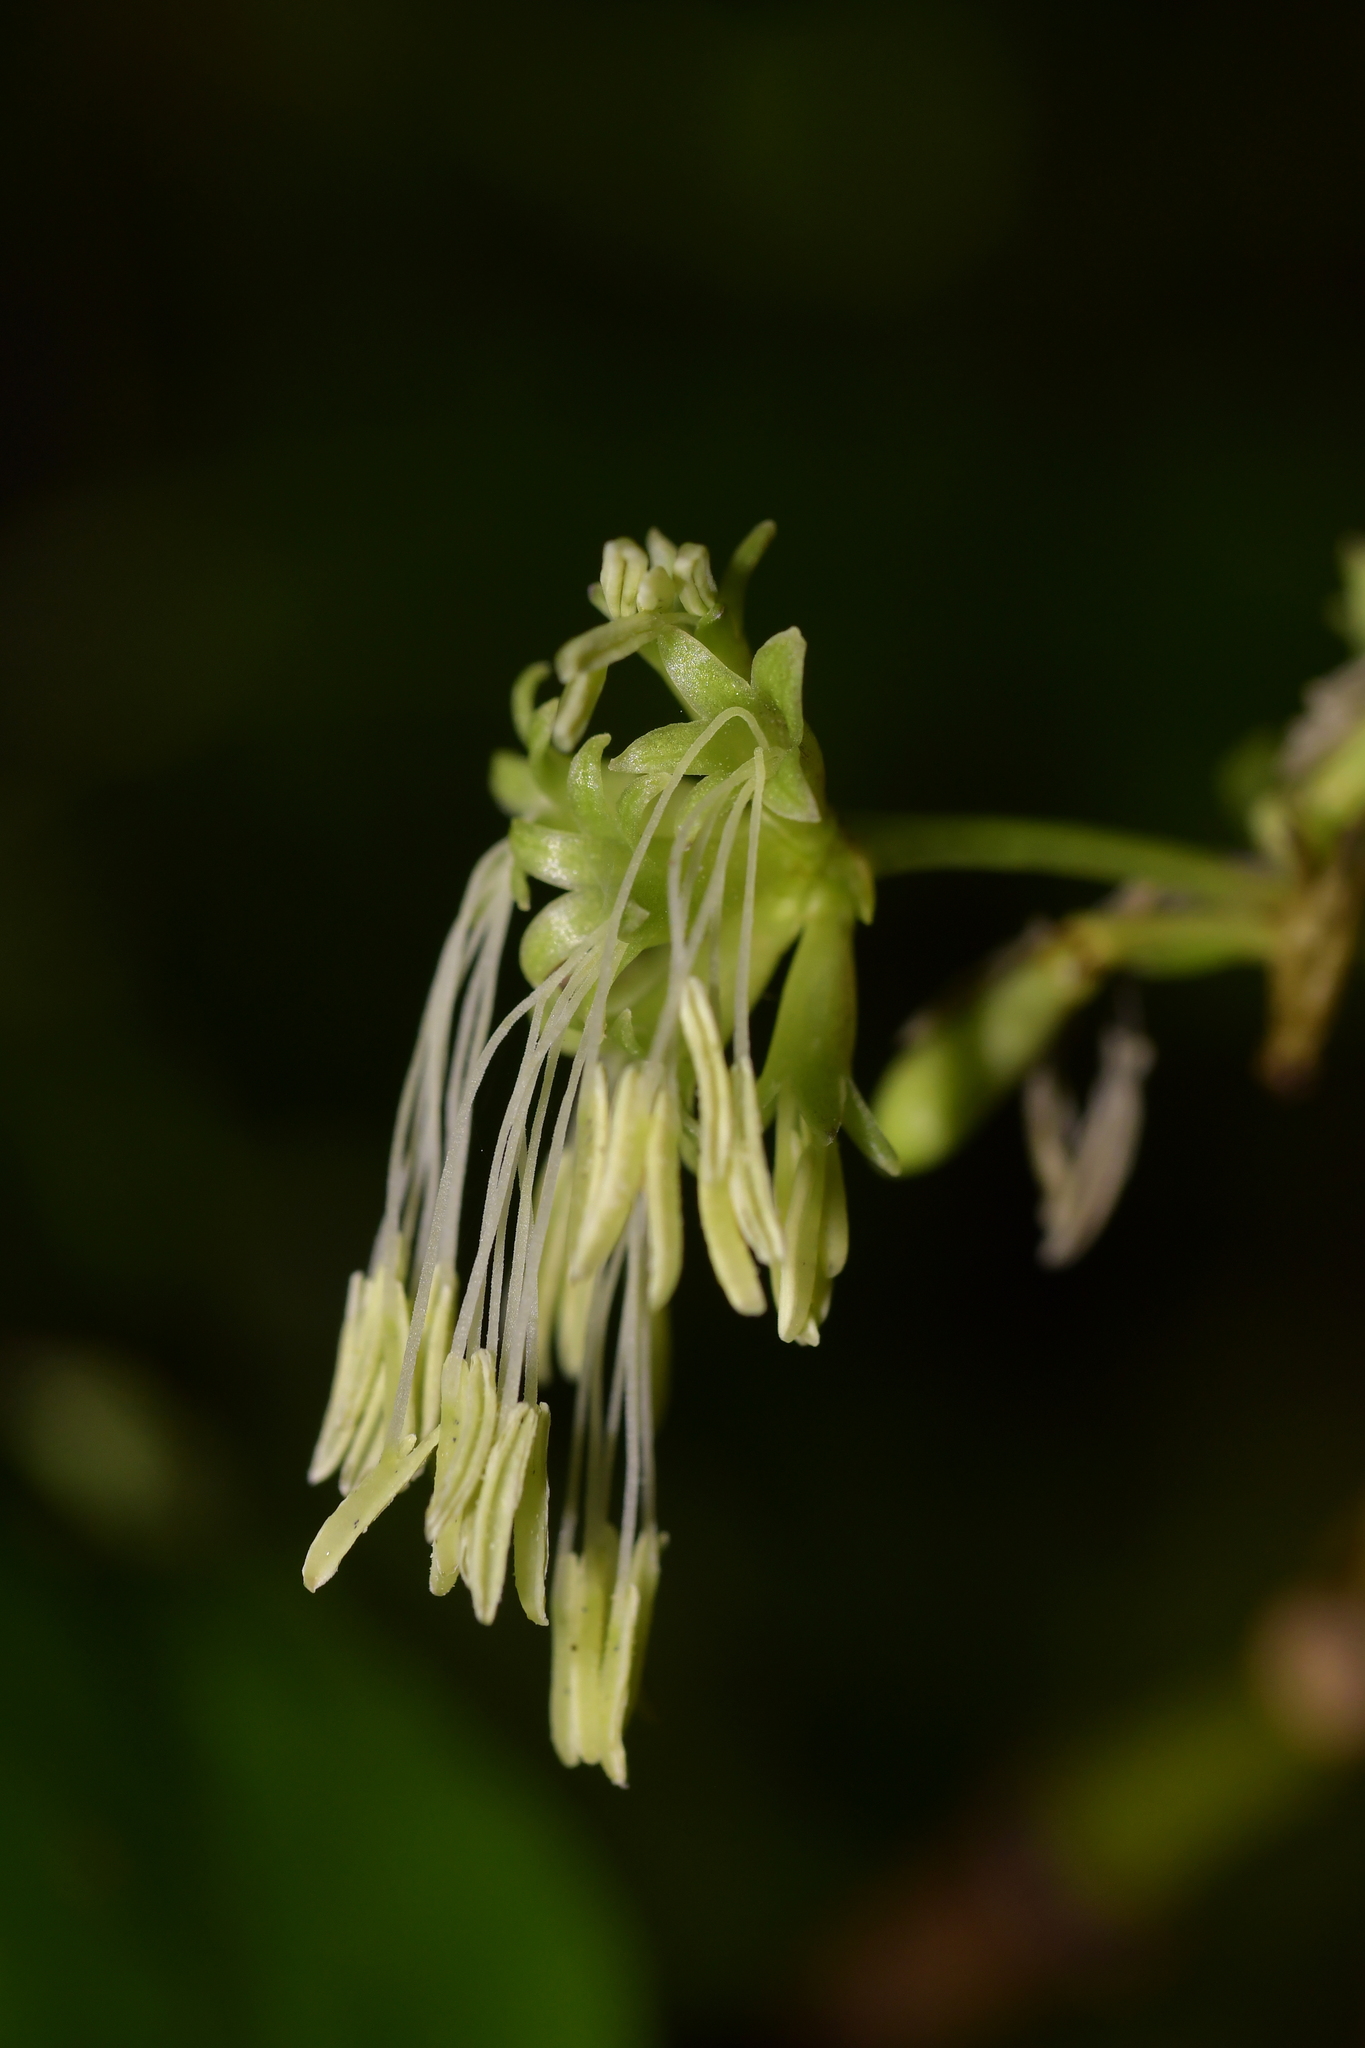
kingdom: Plantae
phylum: Tracheophyta
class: Magnoliopsida
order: Gentianales
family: Rubiaceae
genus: Coprosma
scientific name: Coprosma autumnalis
